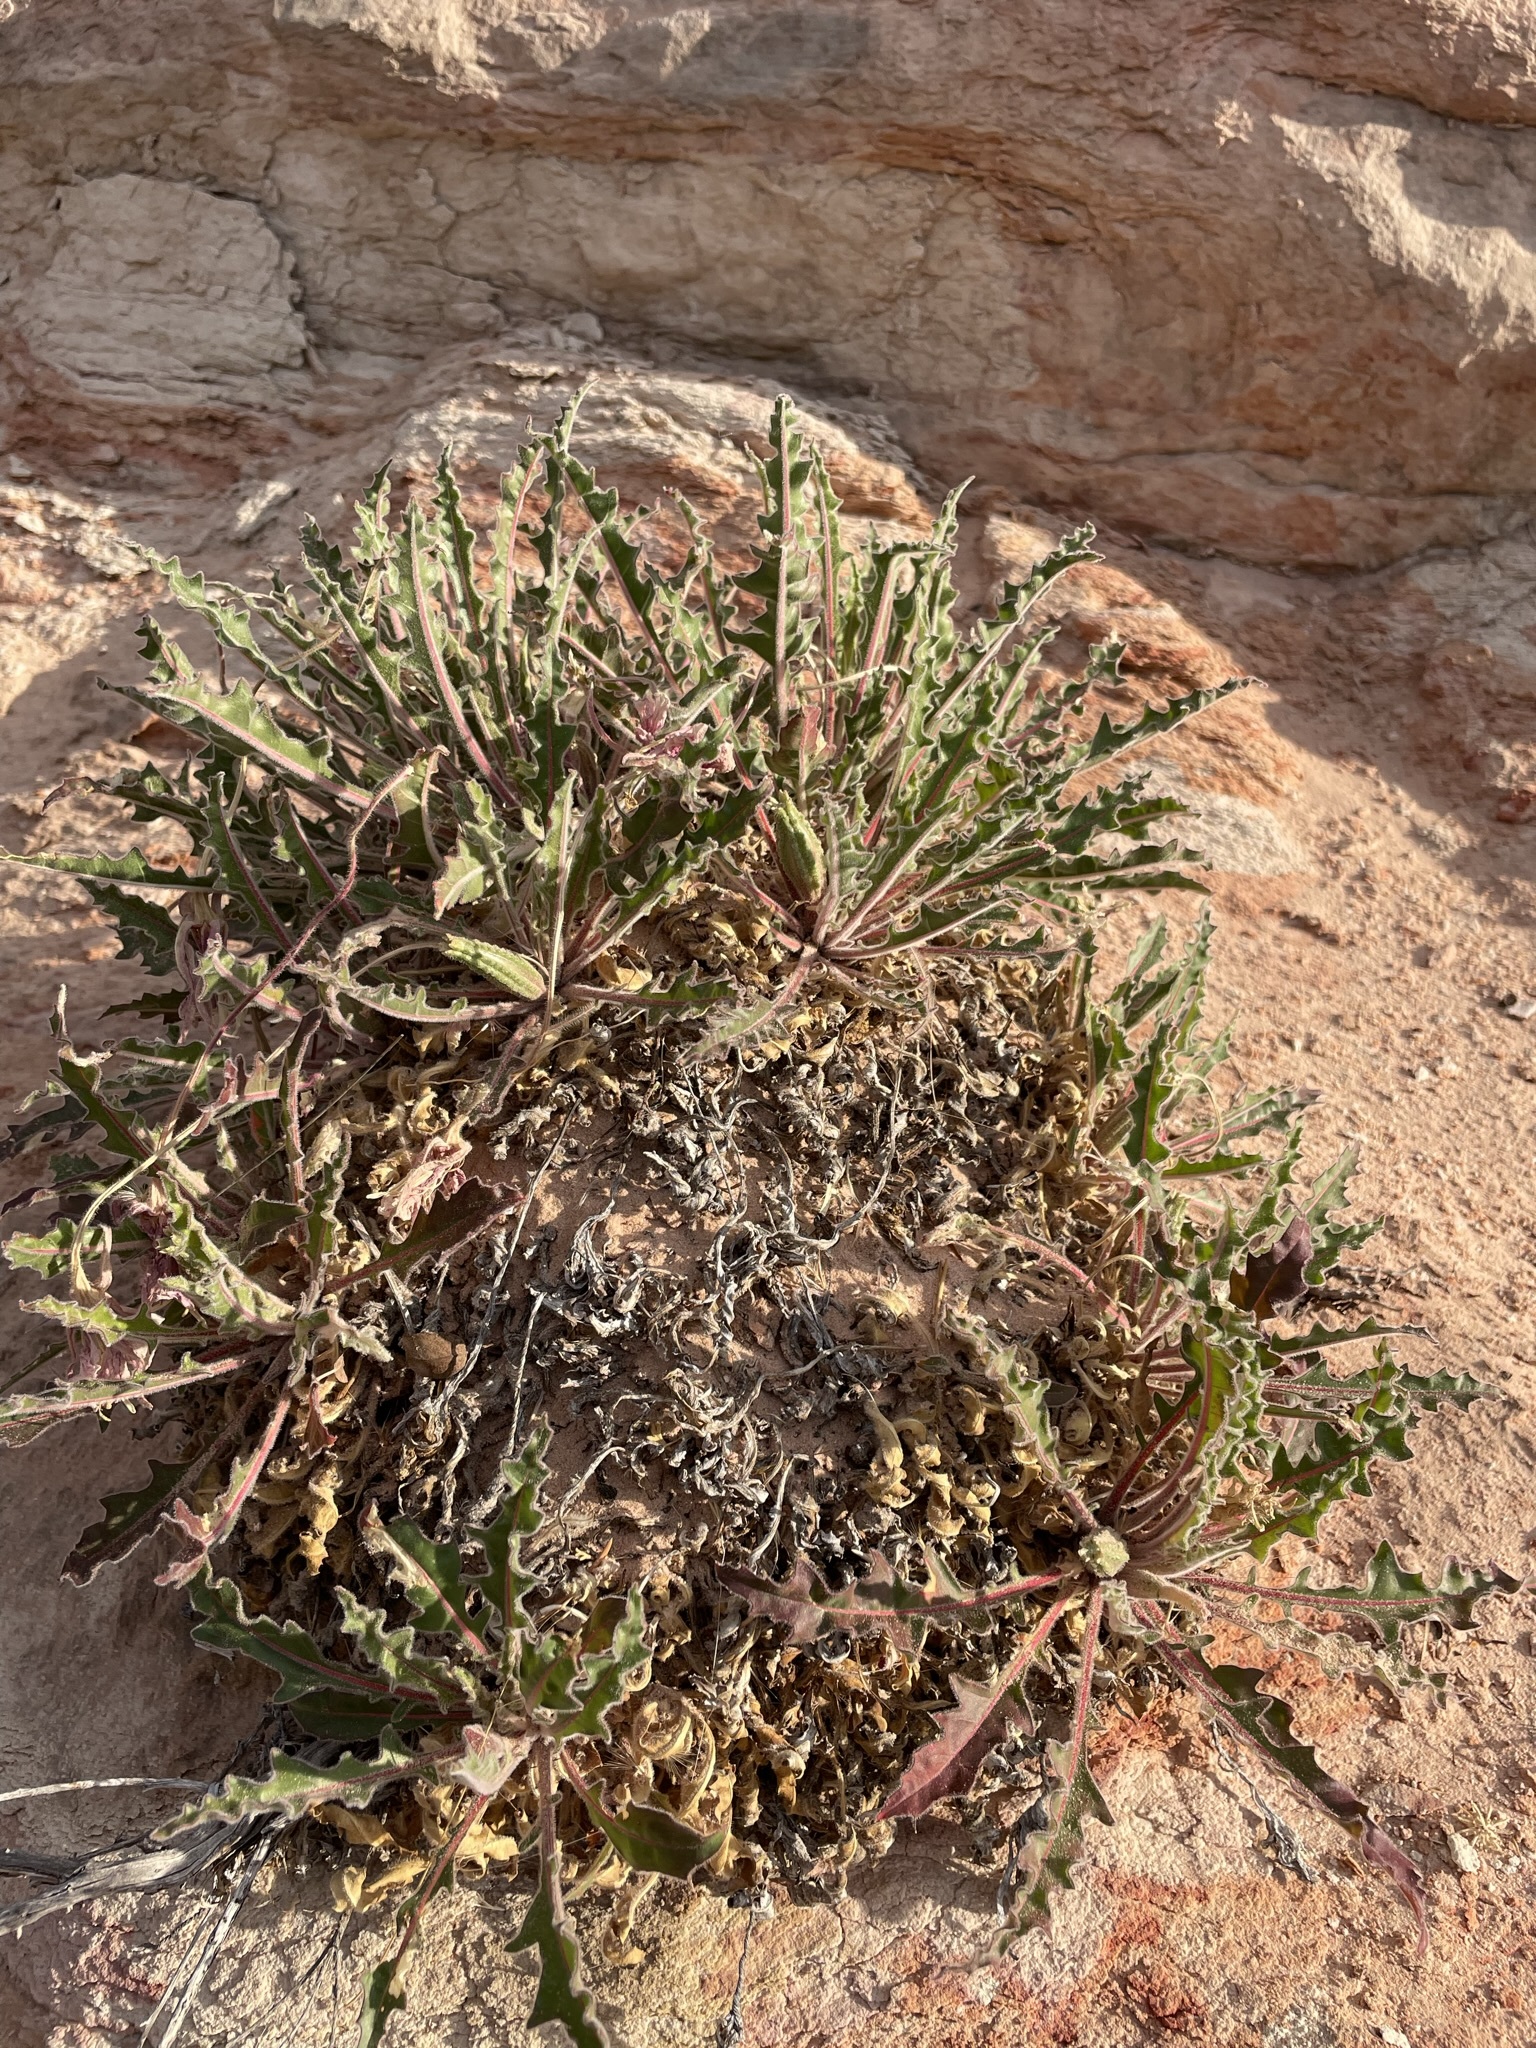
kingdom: Plantae
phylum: Tracheophyta
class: Magnoliopsida
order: Myrtales
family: Onagraceae
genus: Oenothera
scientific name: Oenothera cespitosa
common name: Tufted evening-primrose
